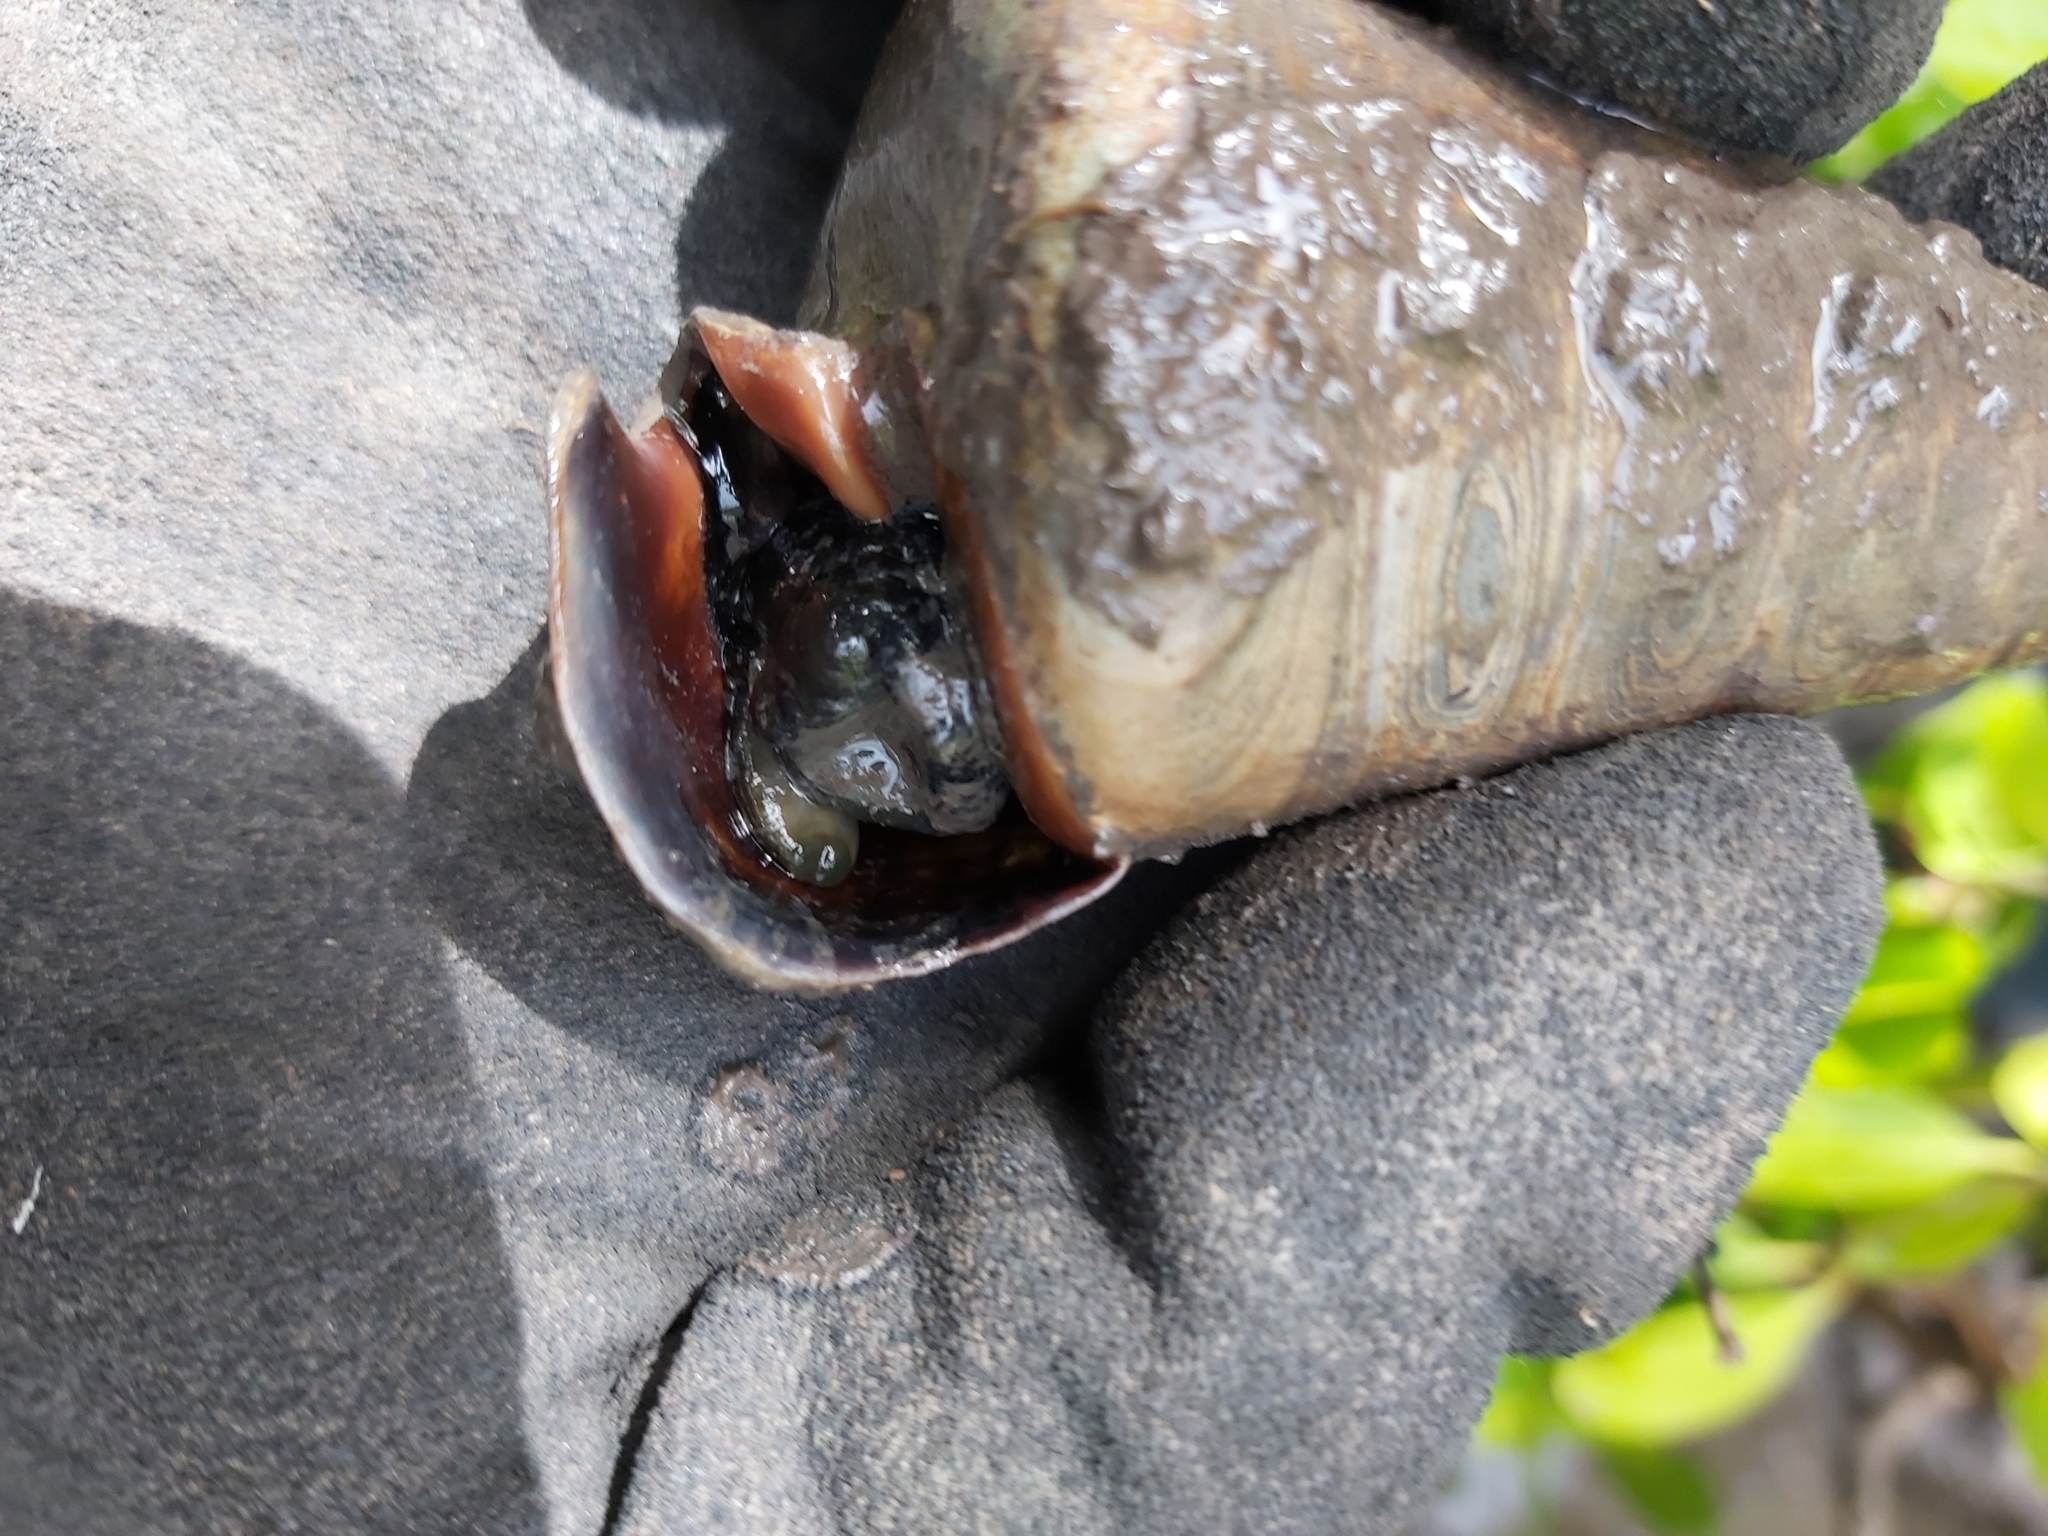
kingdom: Animalia
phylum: Mollusca
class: Gastropoda
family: Potamididae
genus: Telescopium
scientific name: Telescopium telescopium
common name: Telescope creeper
